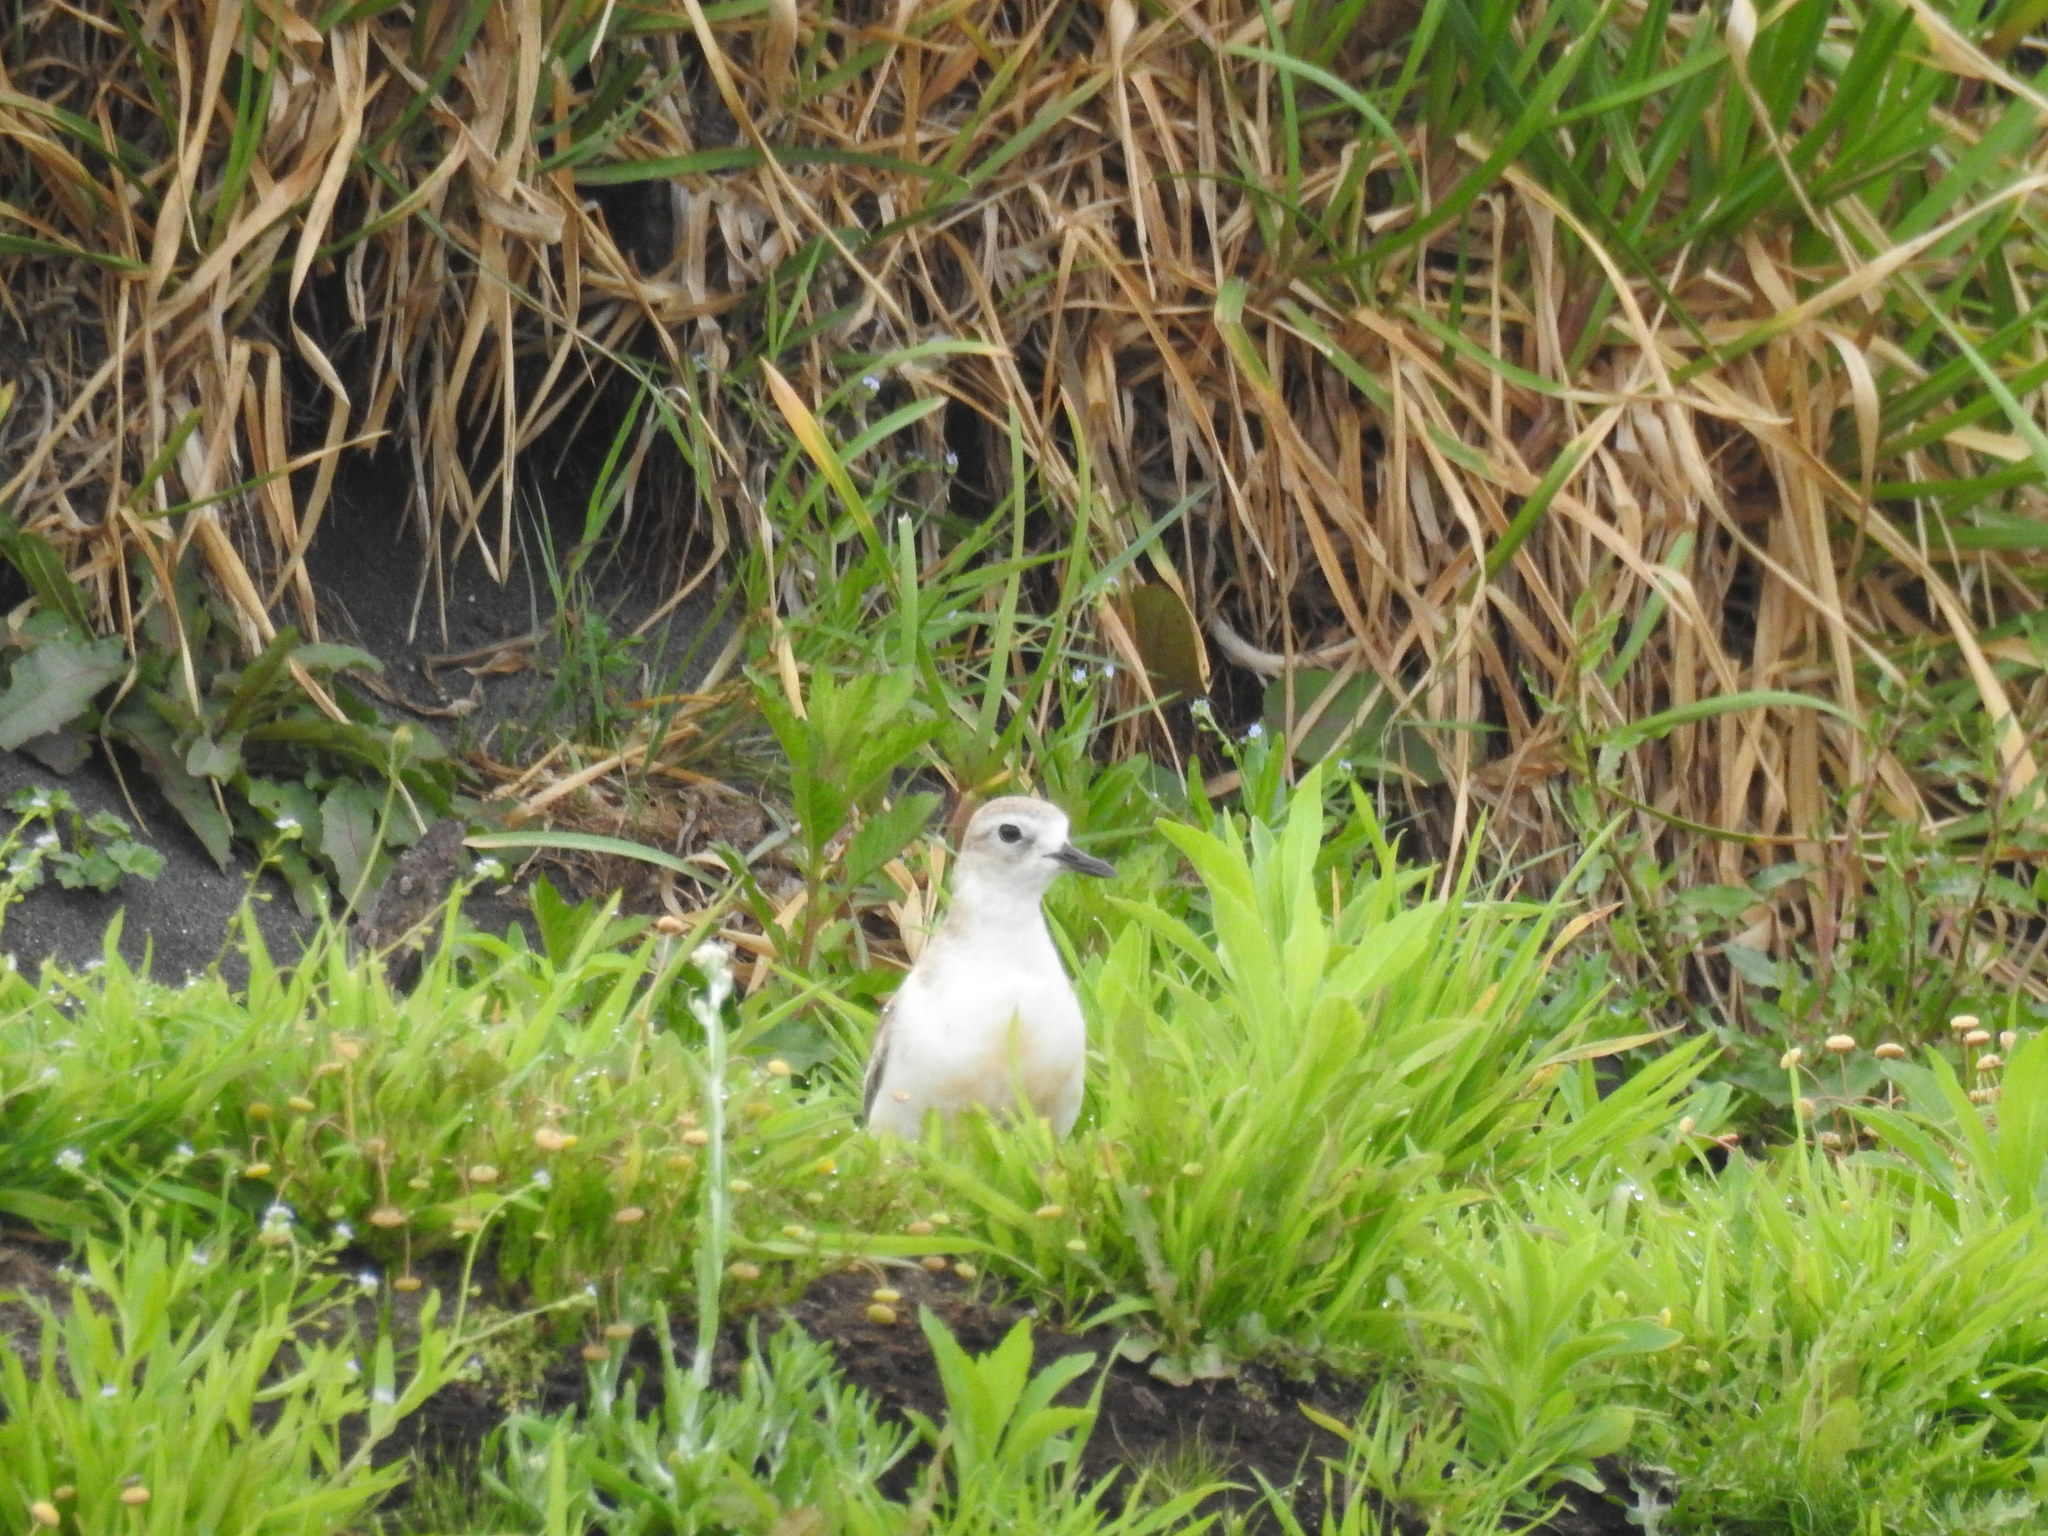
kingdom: Animalia
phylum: Chordata
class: Aves
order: Charadriiformes
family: Charadriidae
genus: Anarhynchus
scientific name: Anarhynchus
